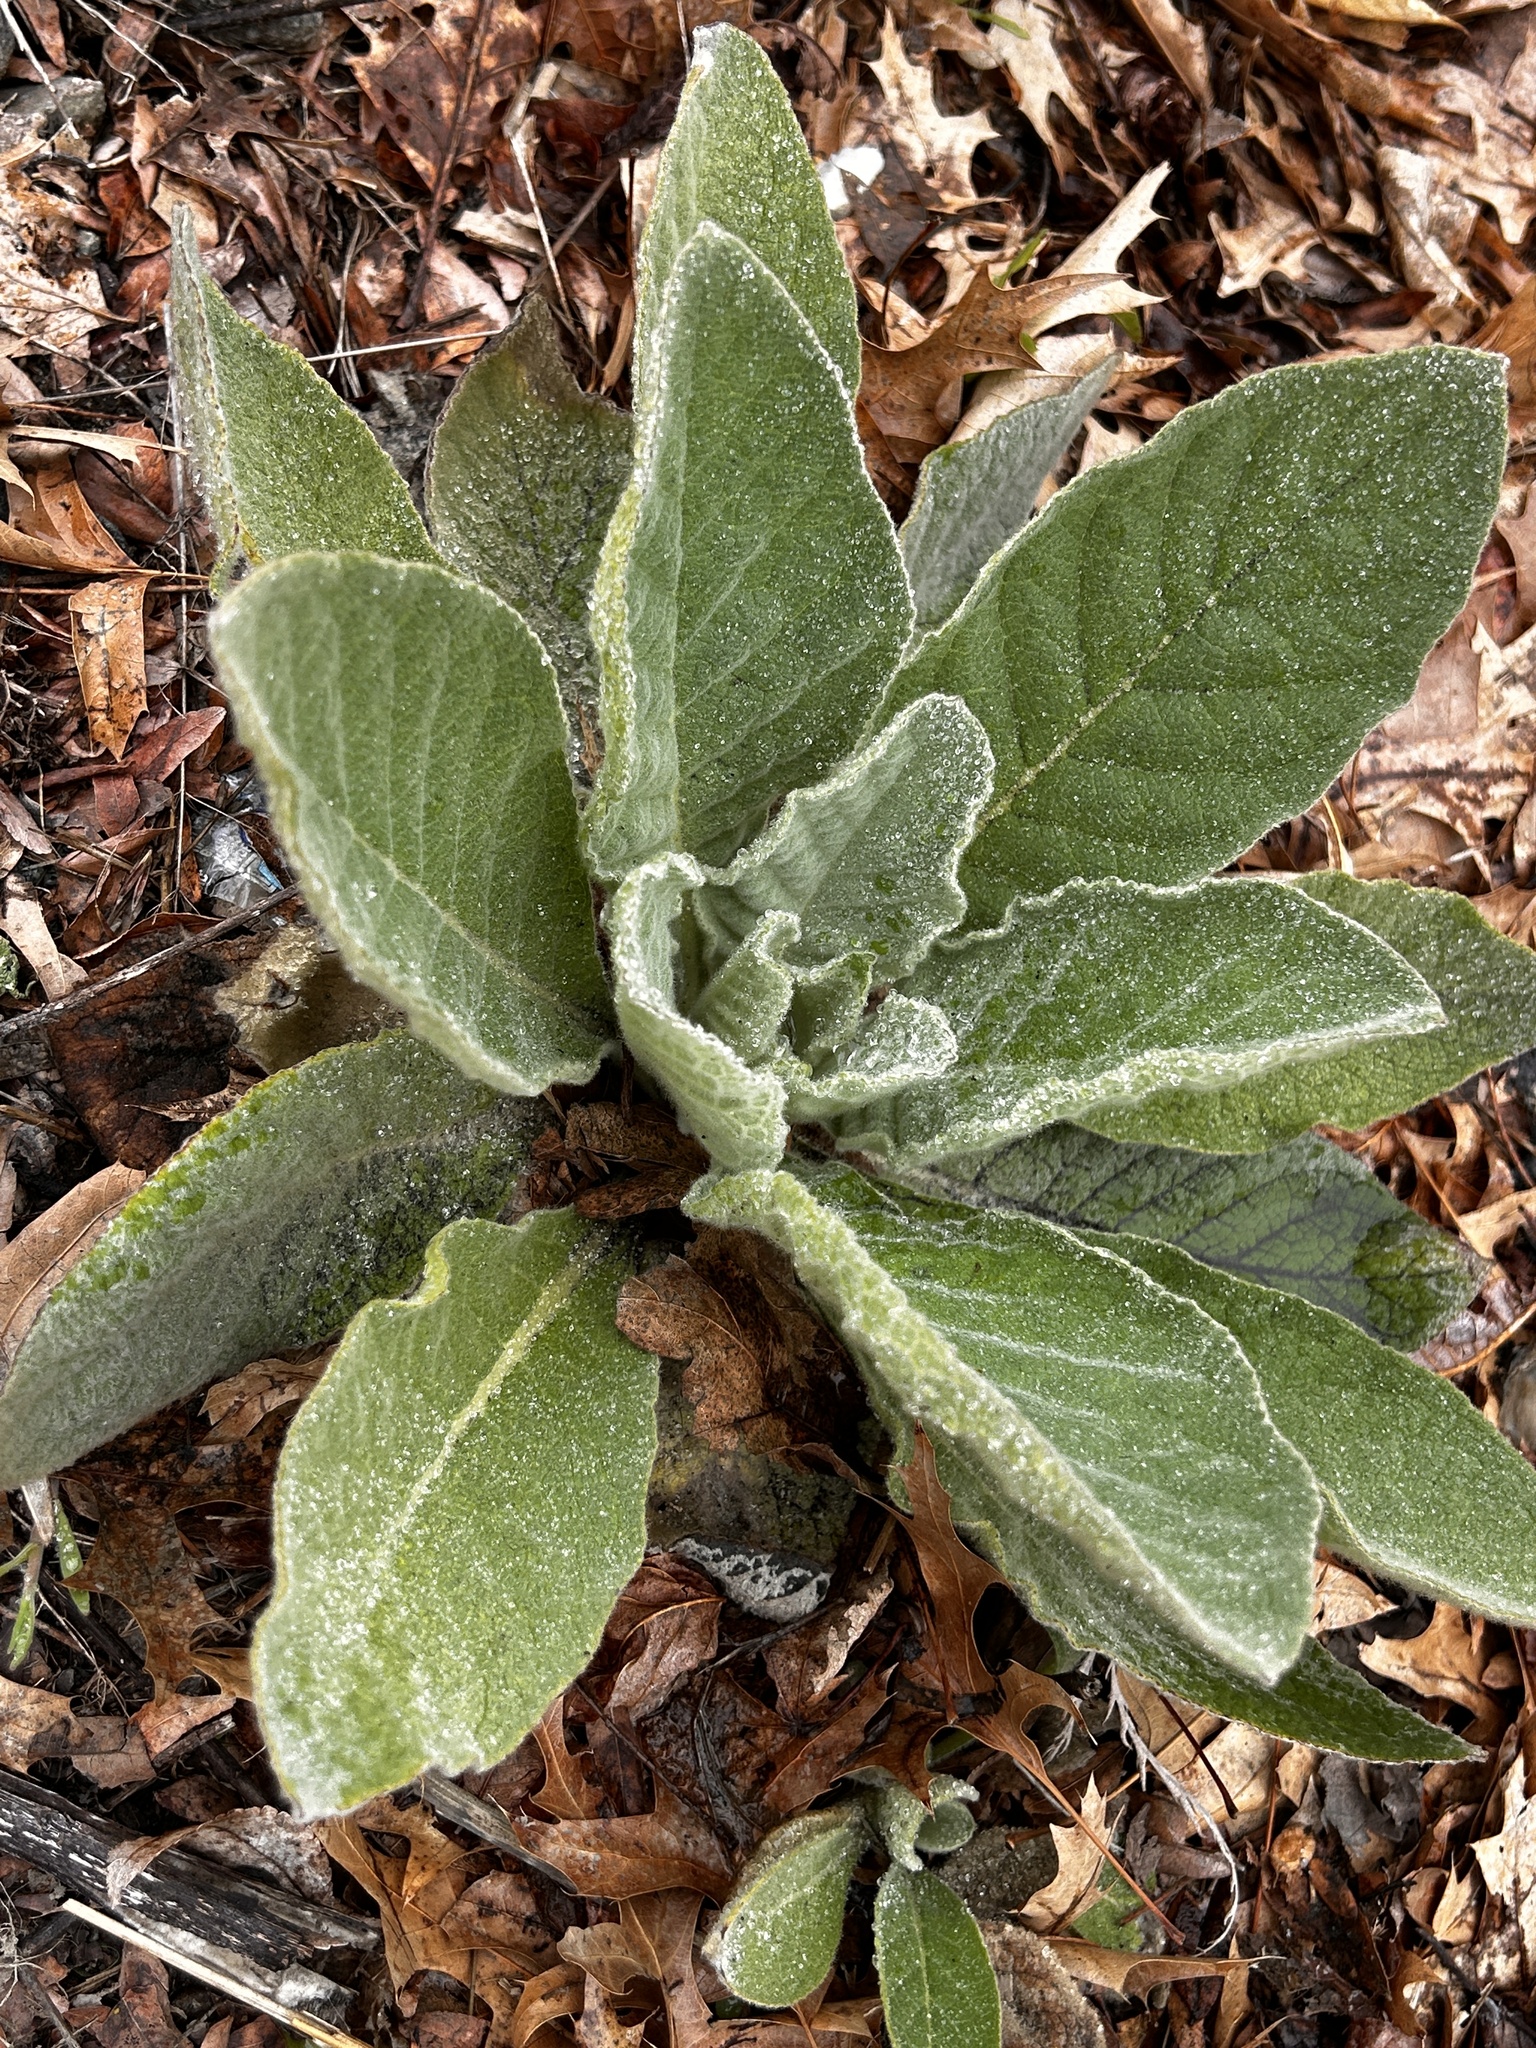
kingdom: Plantae
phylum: Tracheophyta
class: Magnoliopsida
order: Lamiales
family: Scrophulariaceae
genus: Verbascum
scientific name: Verbascum thapsus
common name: Common mullein
